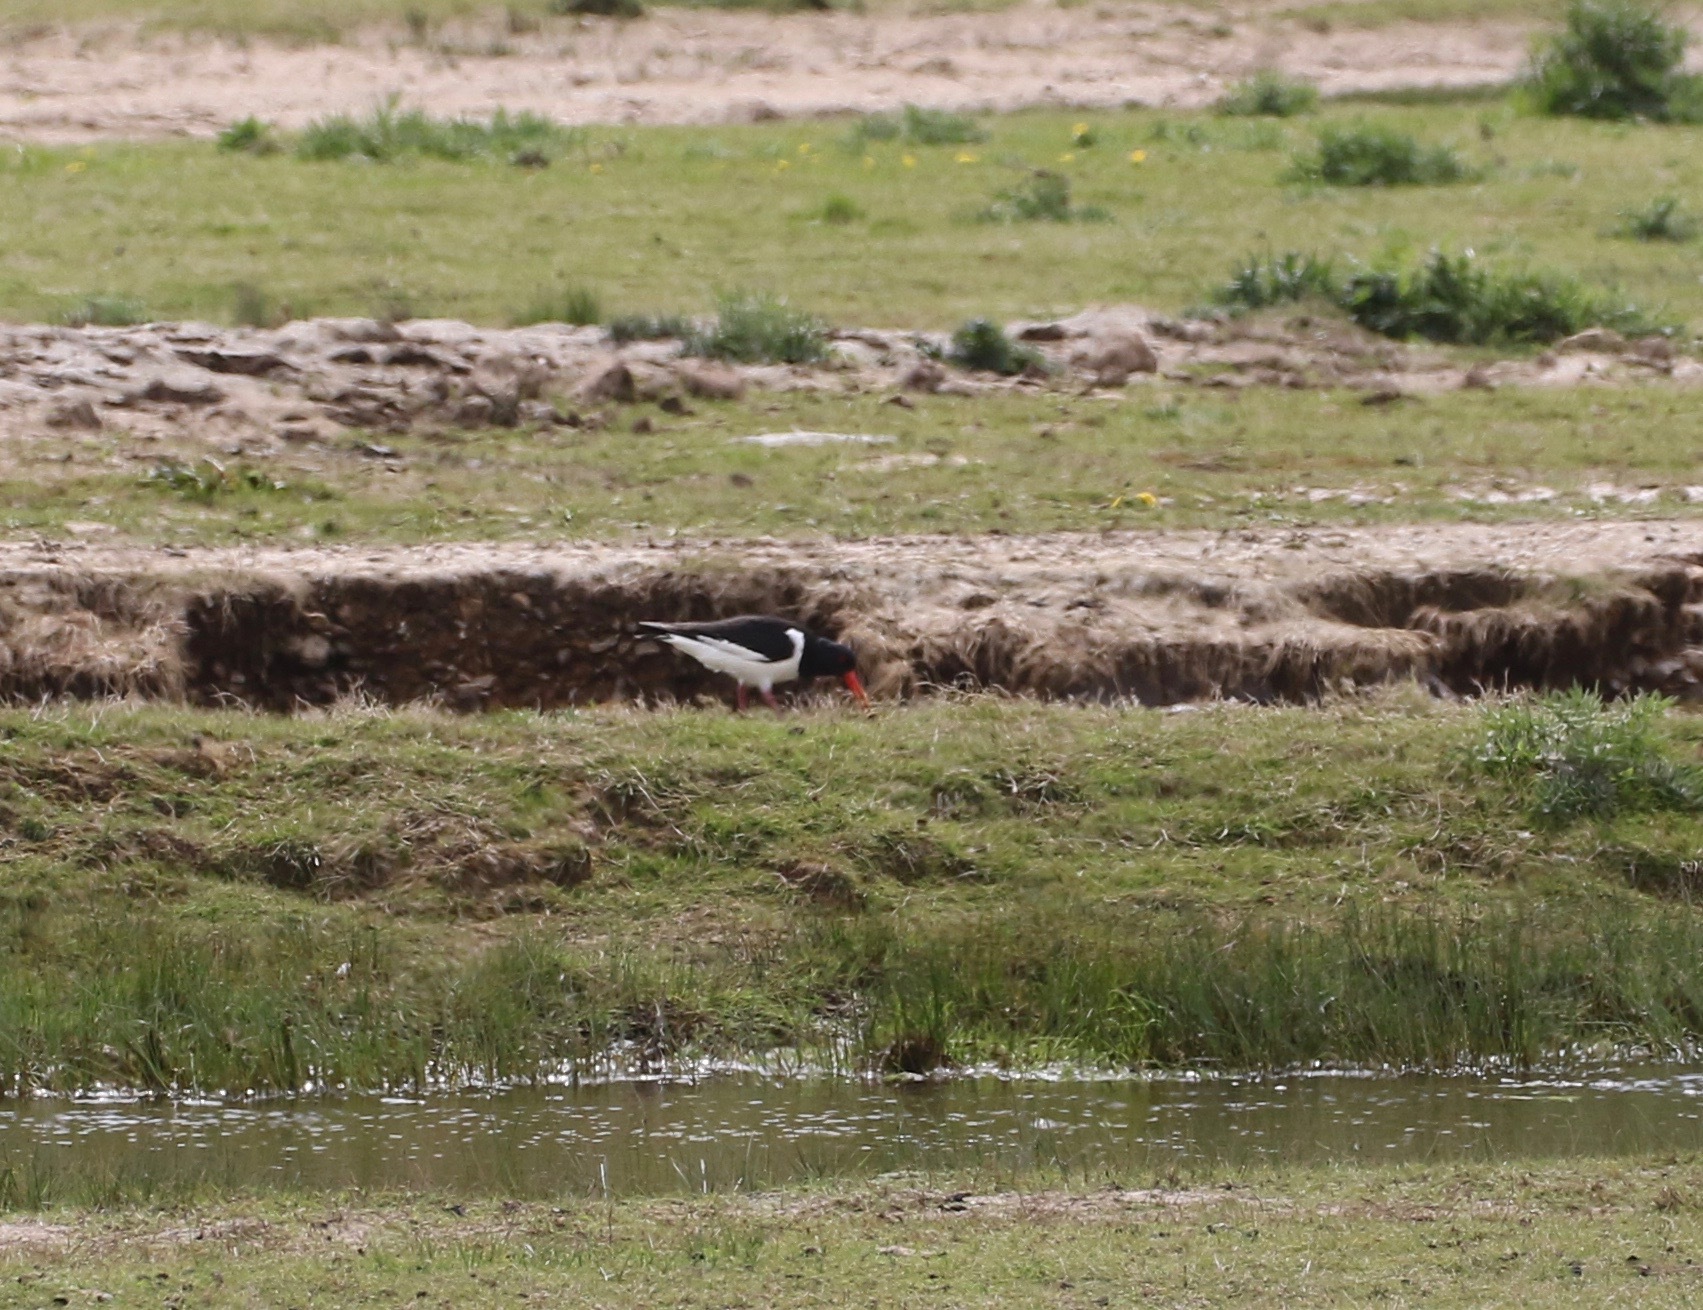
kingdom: Animalia
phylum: Chordata
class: Aves
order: Charadriiformes
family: Haematopodidae
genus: Haematopus
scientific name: Haematopus ostralegus
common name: Eurasian oystercatcher
